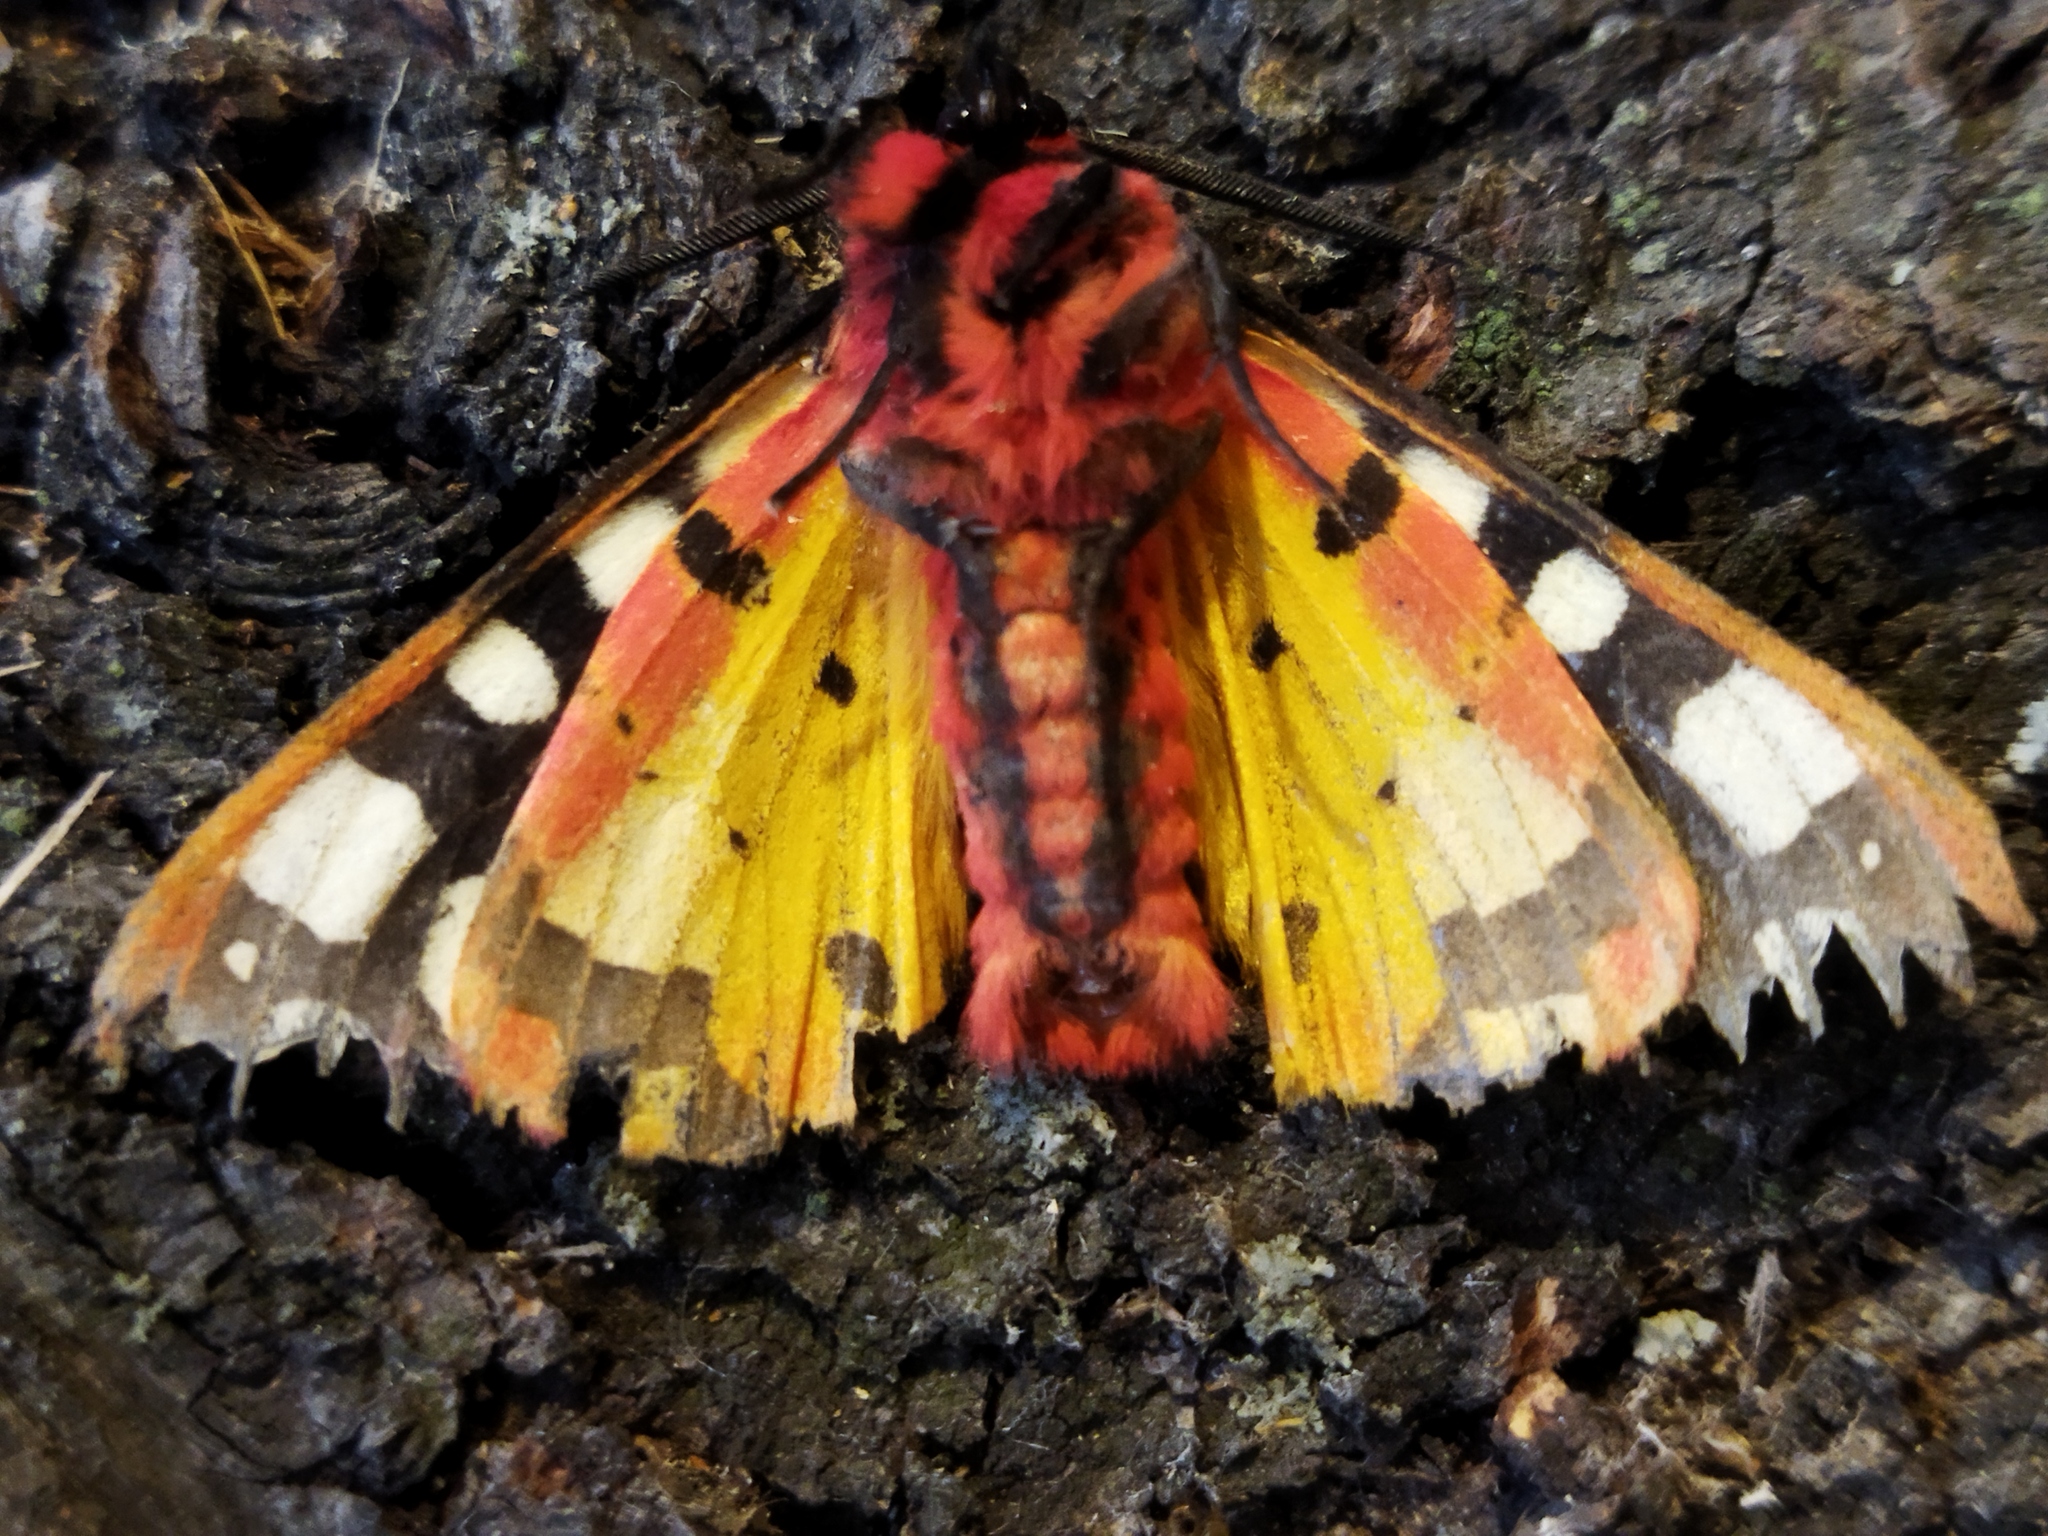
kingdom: Animalia
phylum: Arthropoda
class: Insecta
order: Lepidoptera
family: Erebidae
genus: Epicallia
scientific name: Epicallia villica
